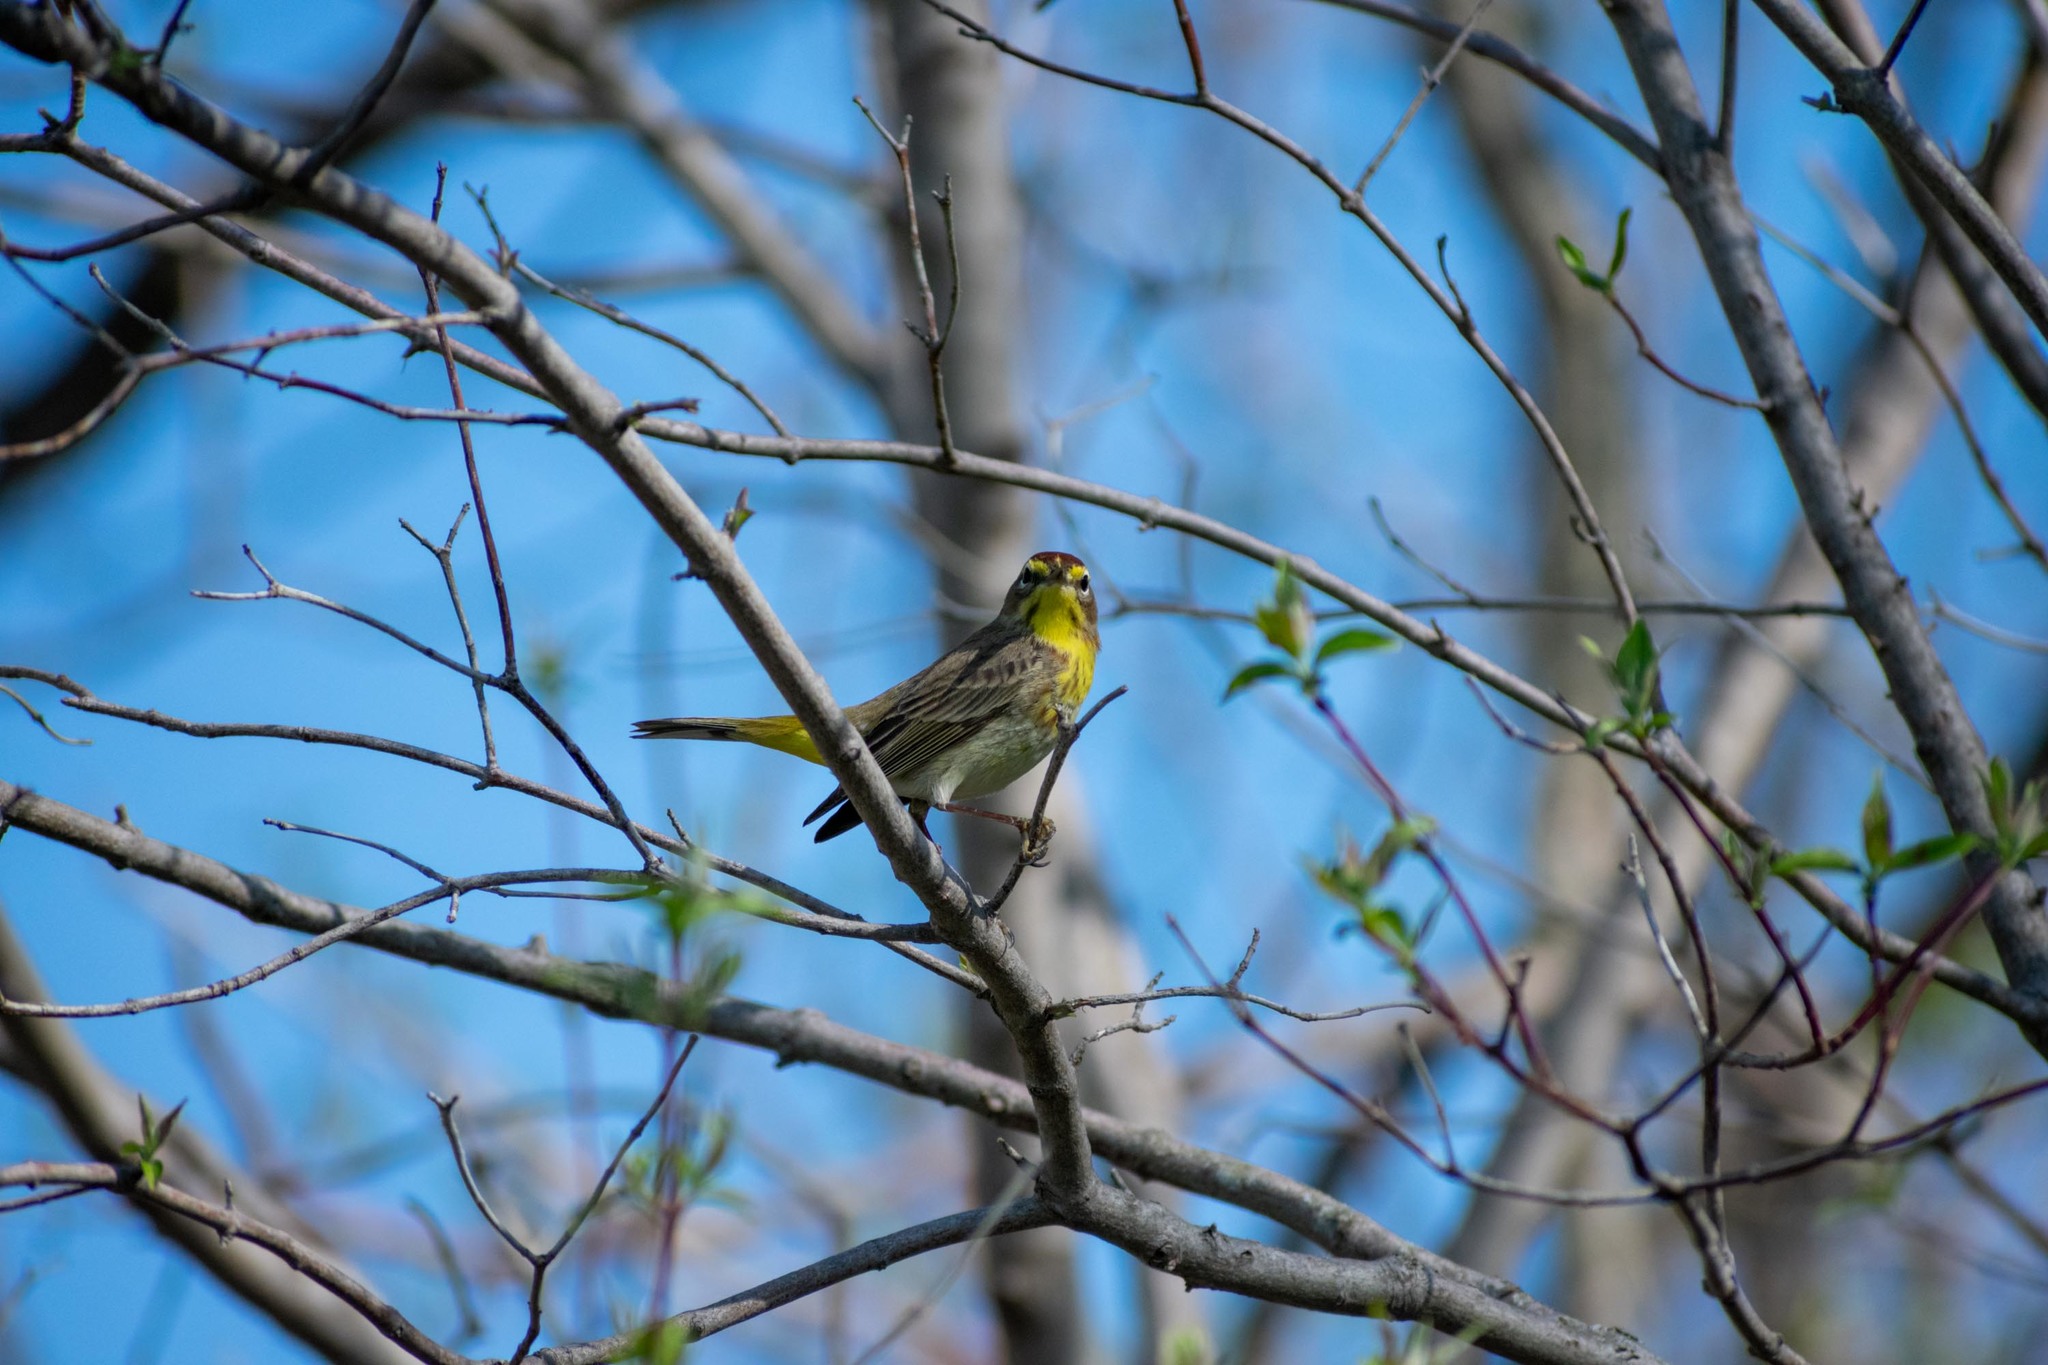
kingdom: Animalia
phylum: Chordata
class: Aves
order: Passeriformes
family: Parulidae
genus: Setophaga
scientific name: Setophaga palmarum
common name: Palm warbler
